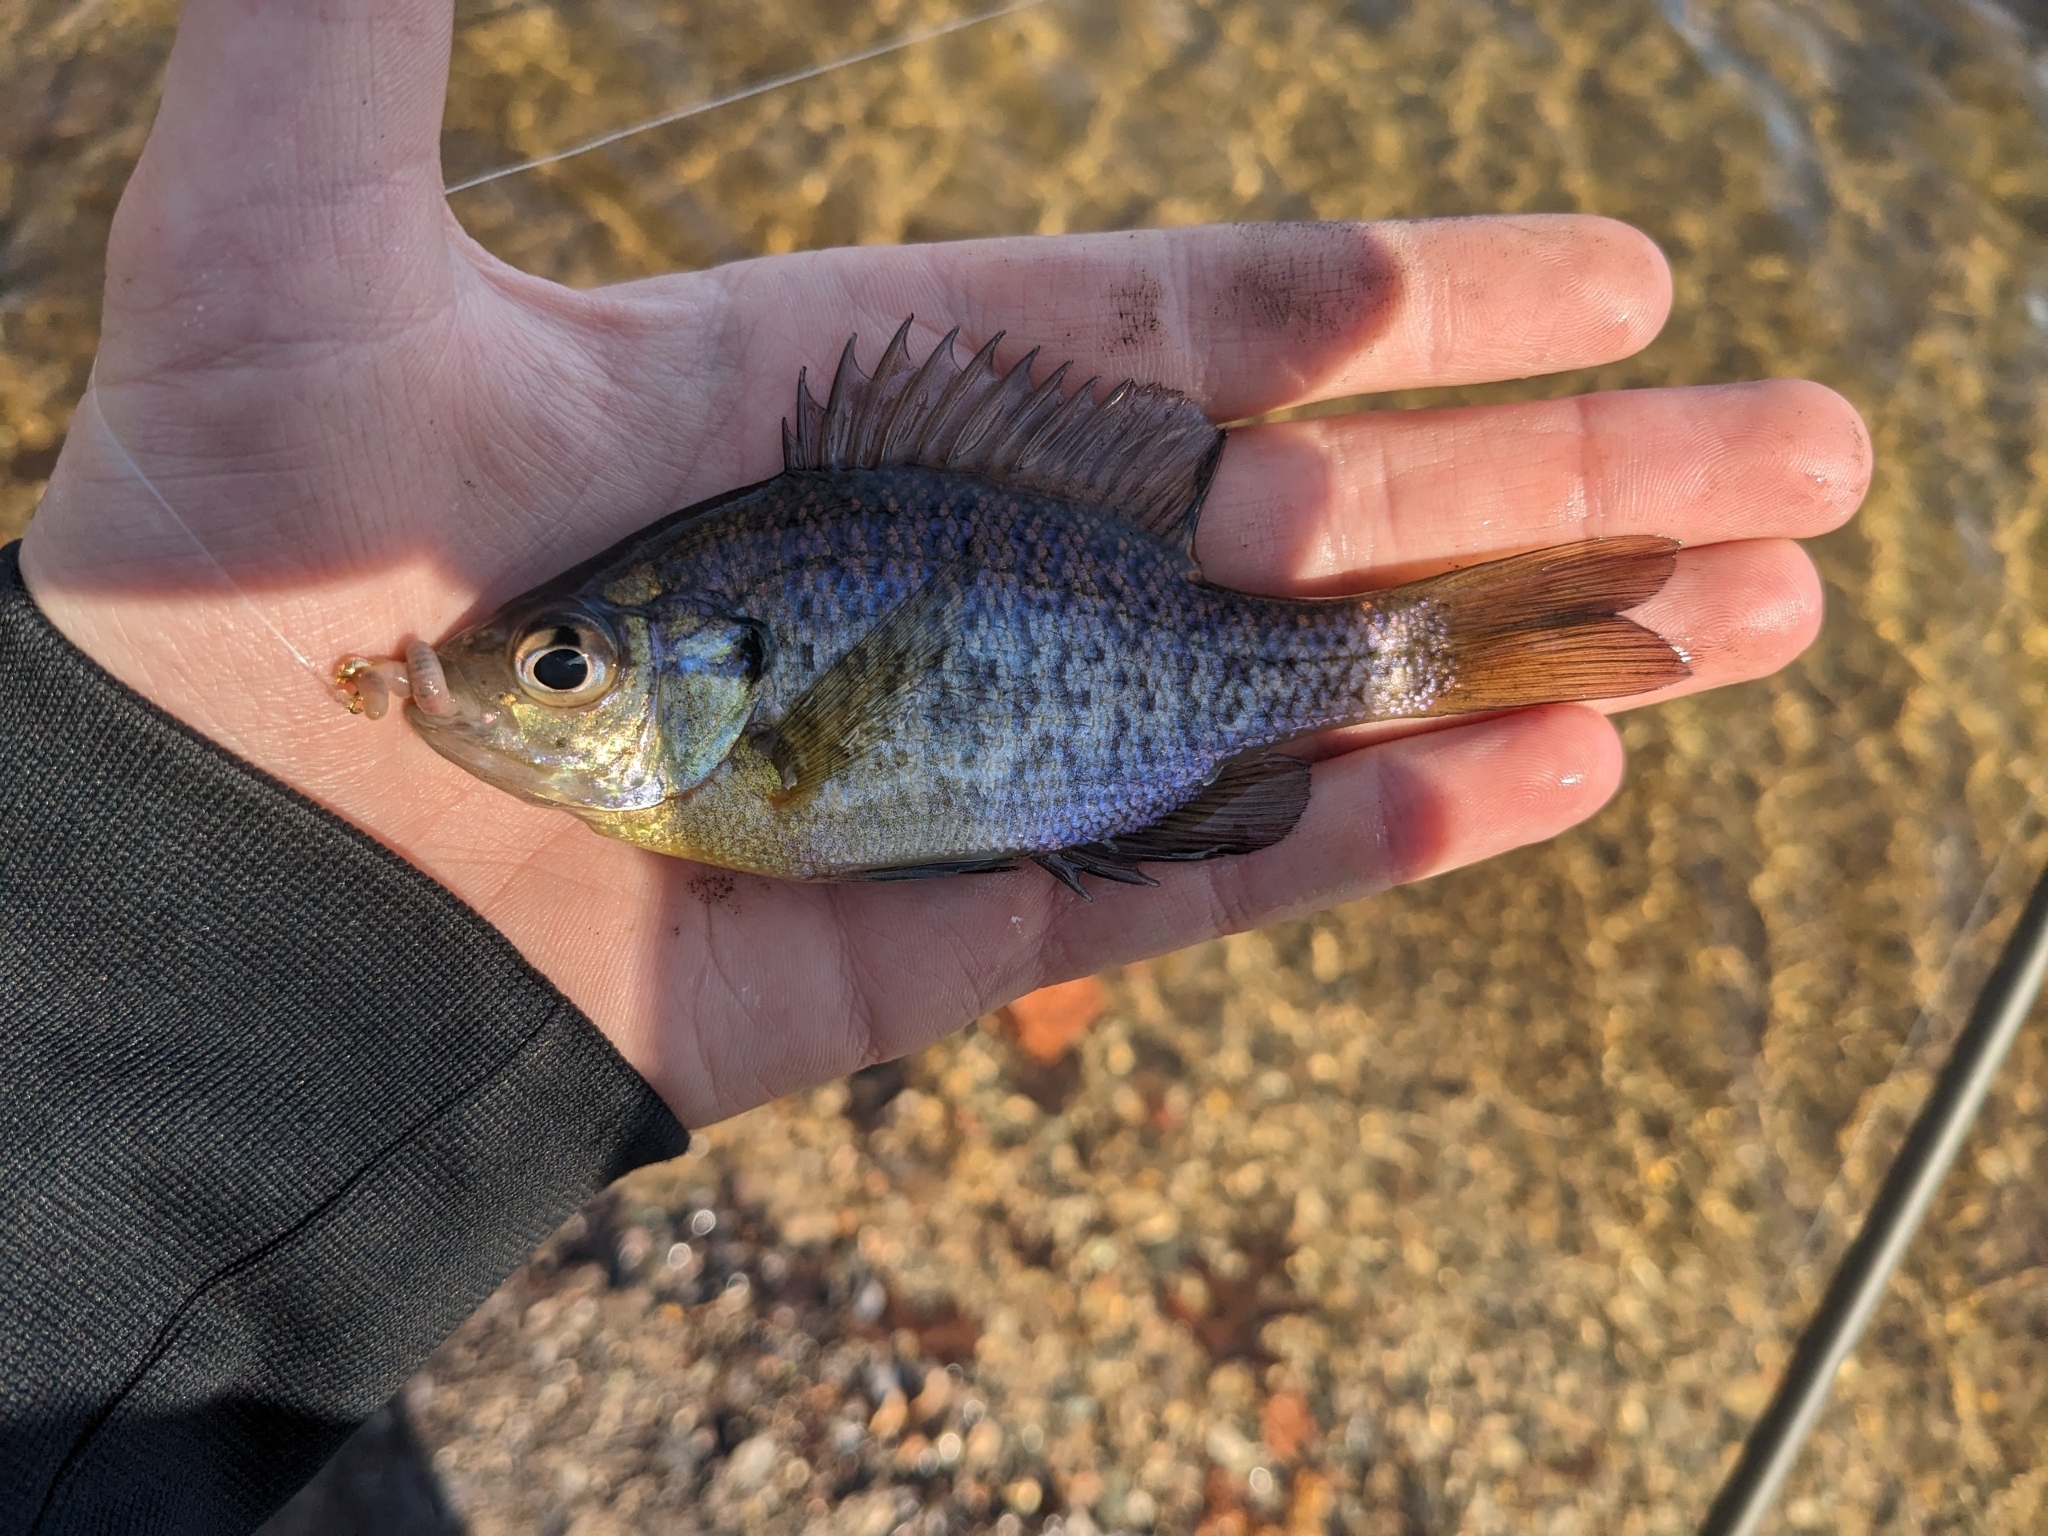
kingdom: Animalia
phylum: Chordata
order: Perciformes
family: Centrarchidae
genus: Lepomis
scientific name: Lepomis macrochirus
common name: Bluegill
